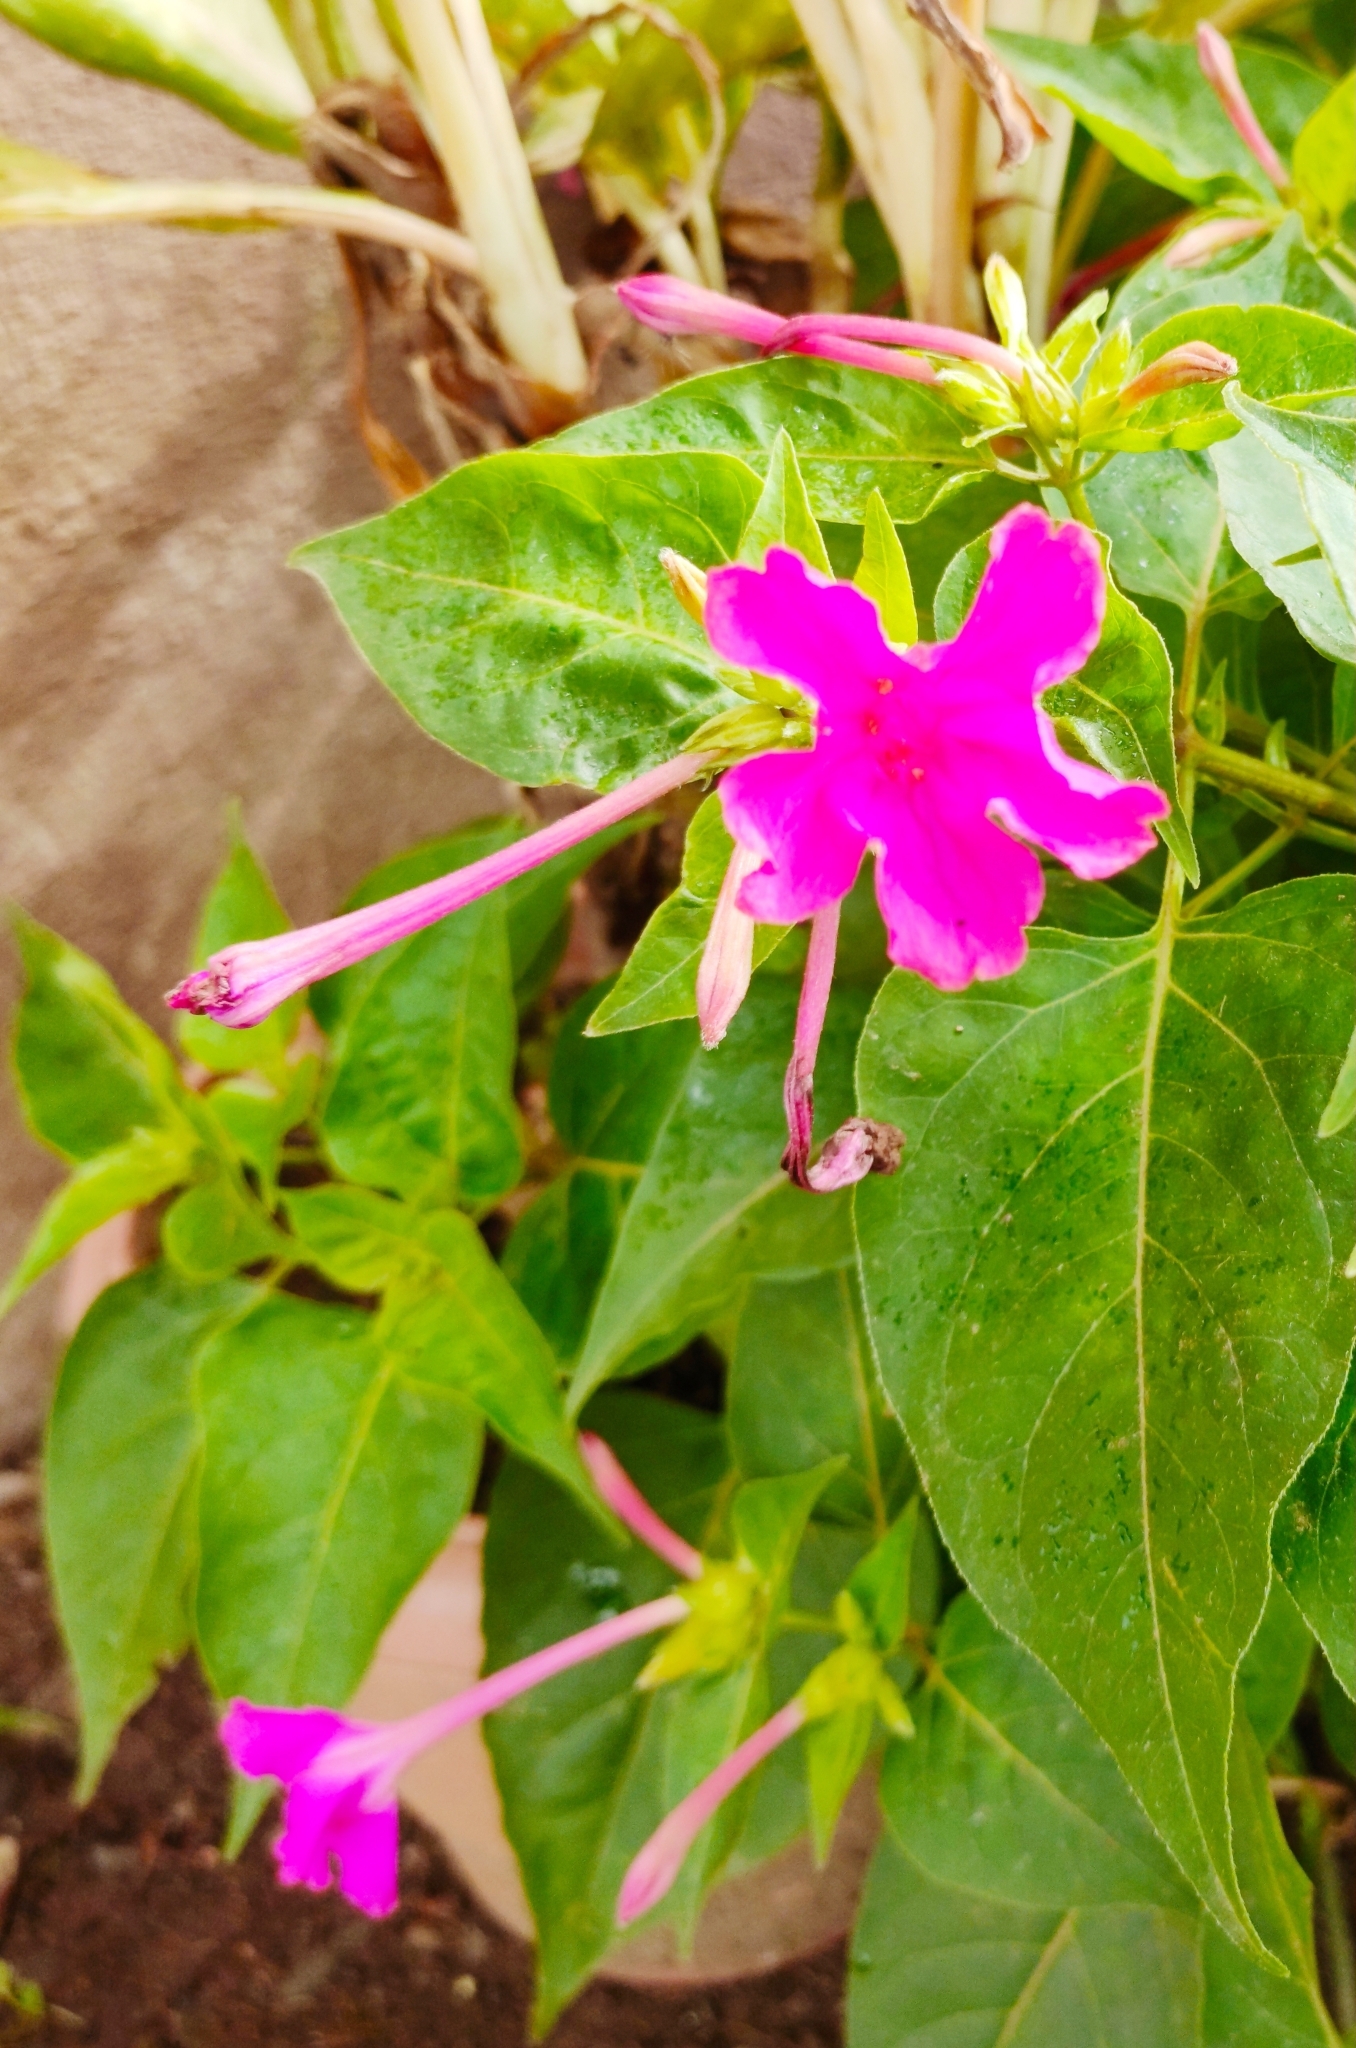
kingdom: Plantae
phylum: Tracheophyta
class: Magnoliopsida
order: Caryophyllales
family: Nyctaginaceae
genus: Mirabilis
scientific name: Mirabilis jalapa
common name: Marvel-of-peru
